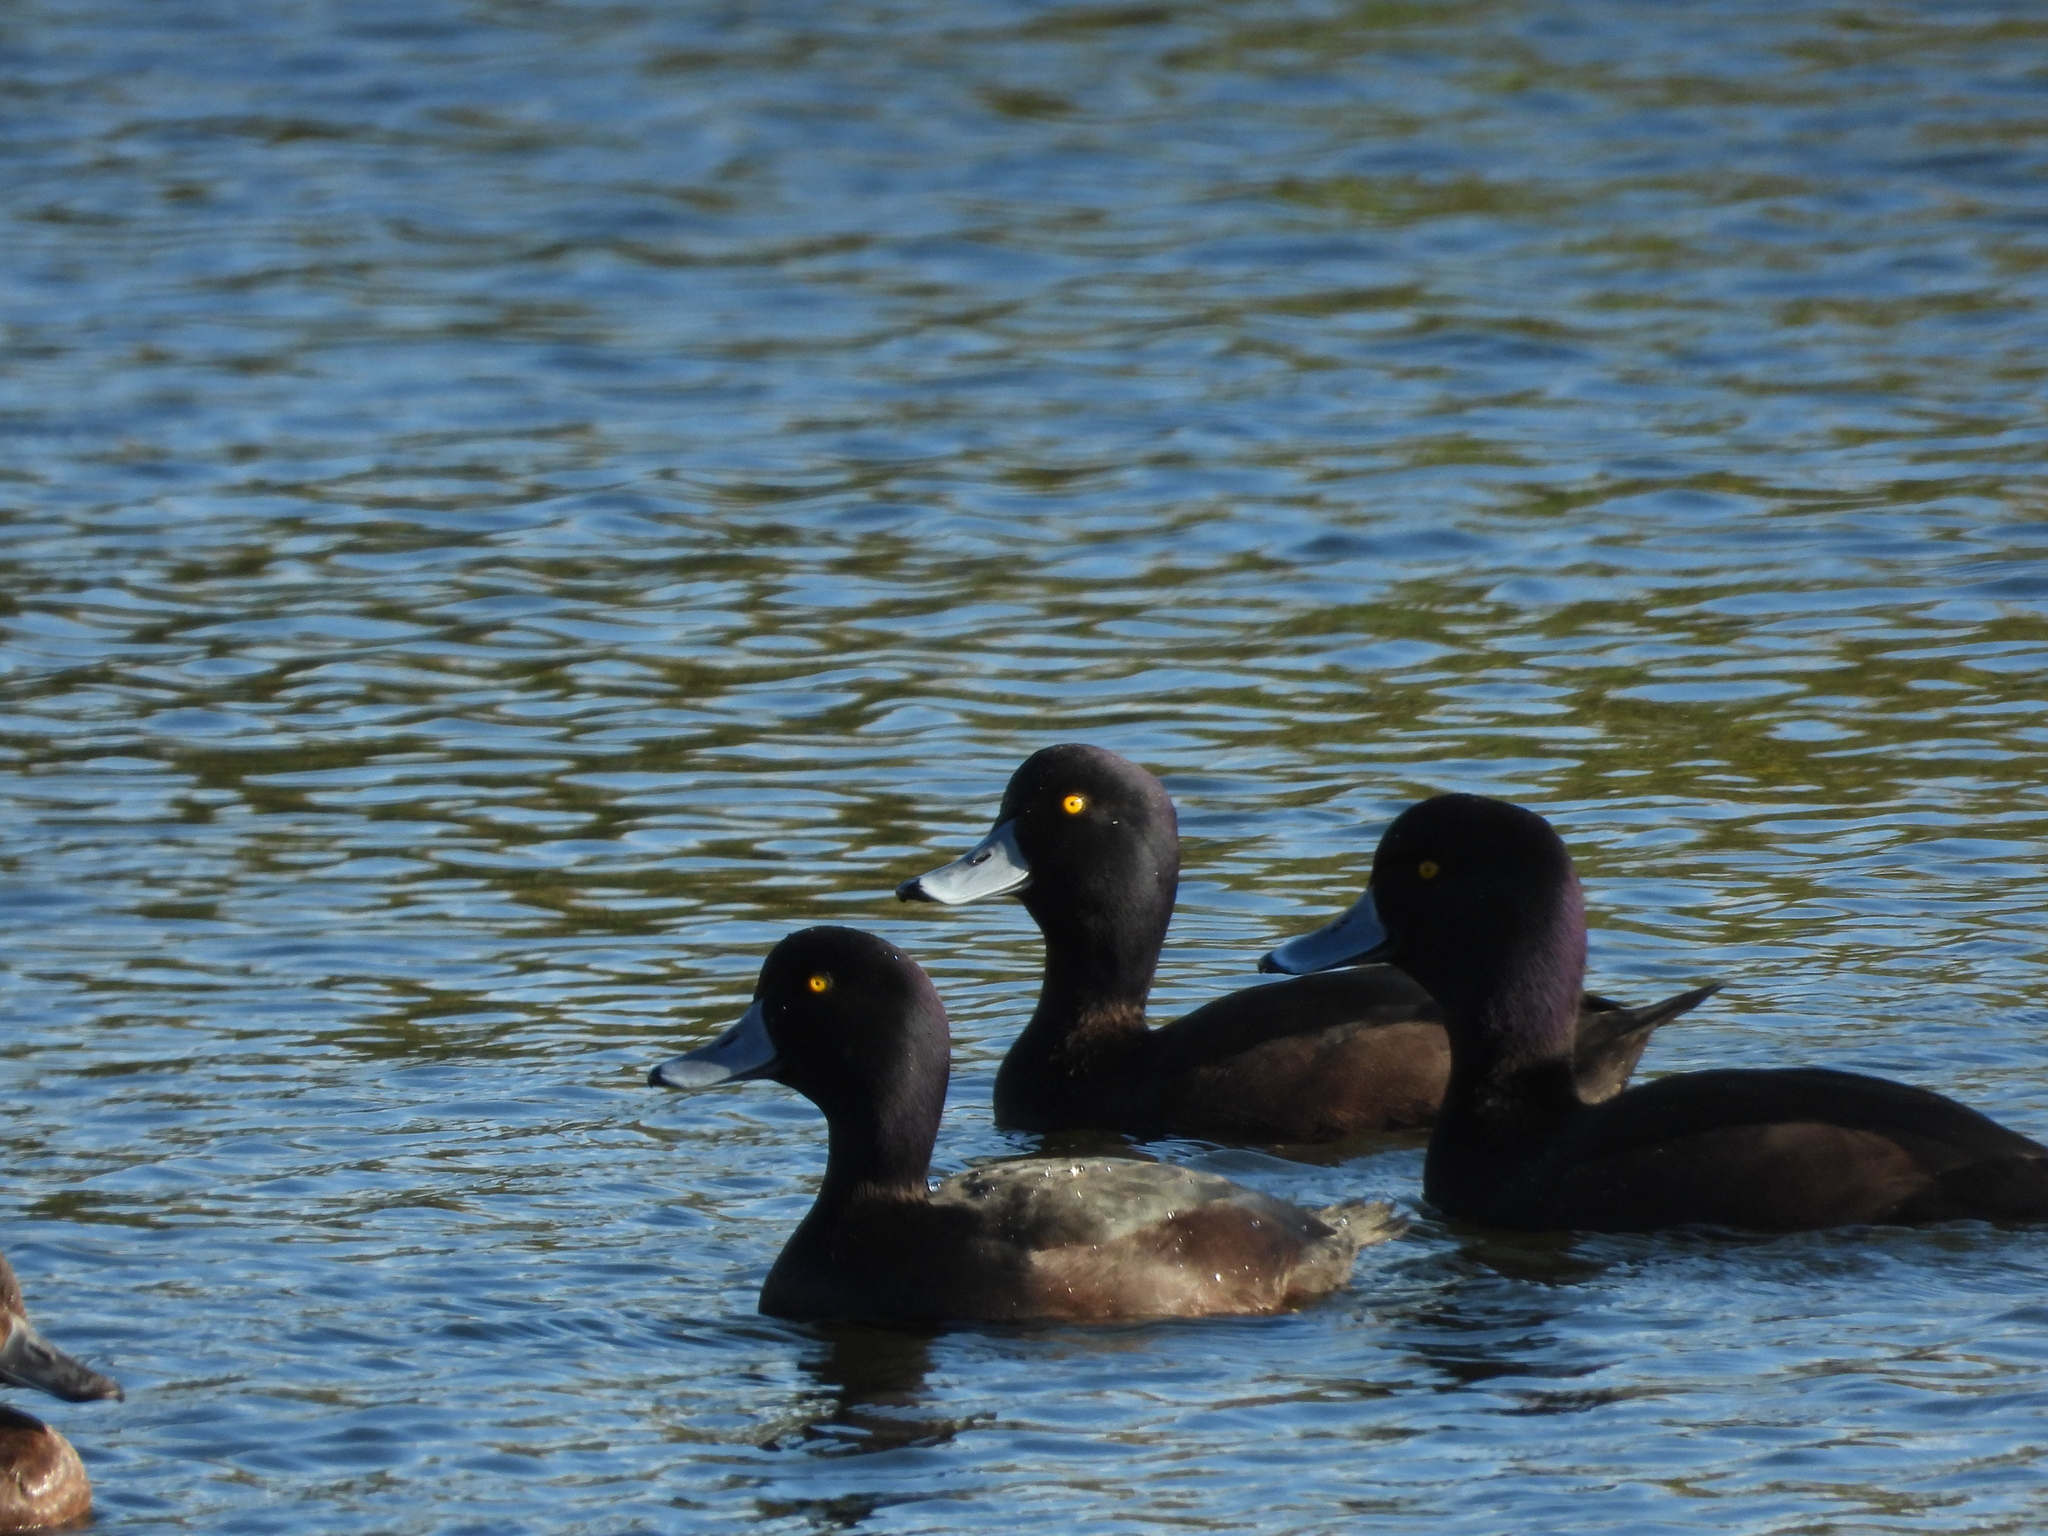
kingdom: Animalia
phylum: Chordata
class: Aves
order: Anseriformes
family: Anatidae
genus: Aythya
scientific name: Aythya novaeseelandiae
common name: New zealand scaup
